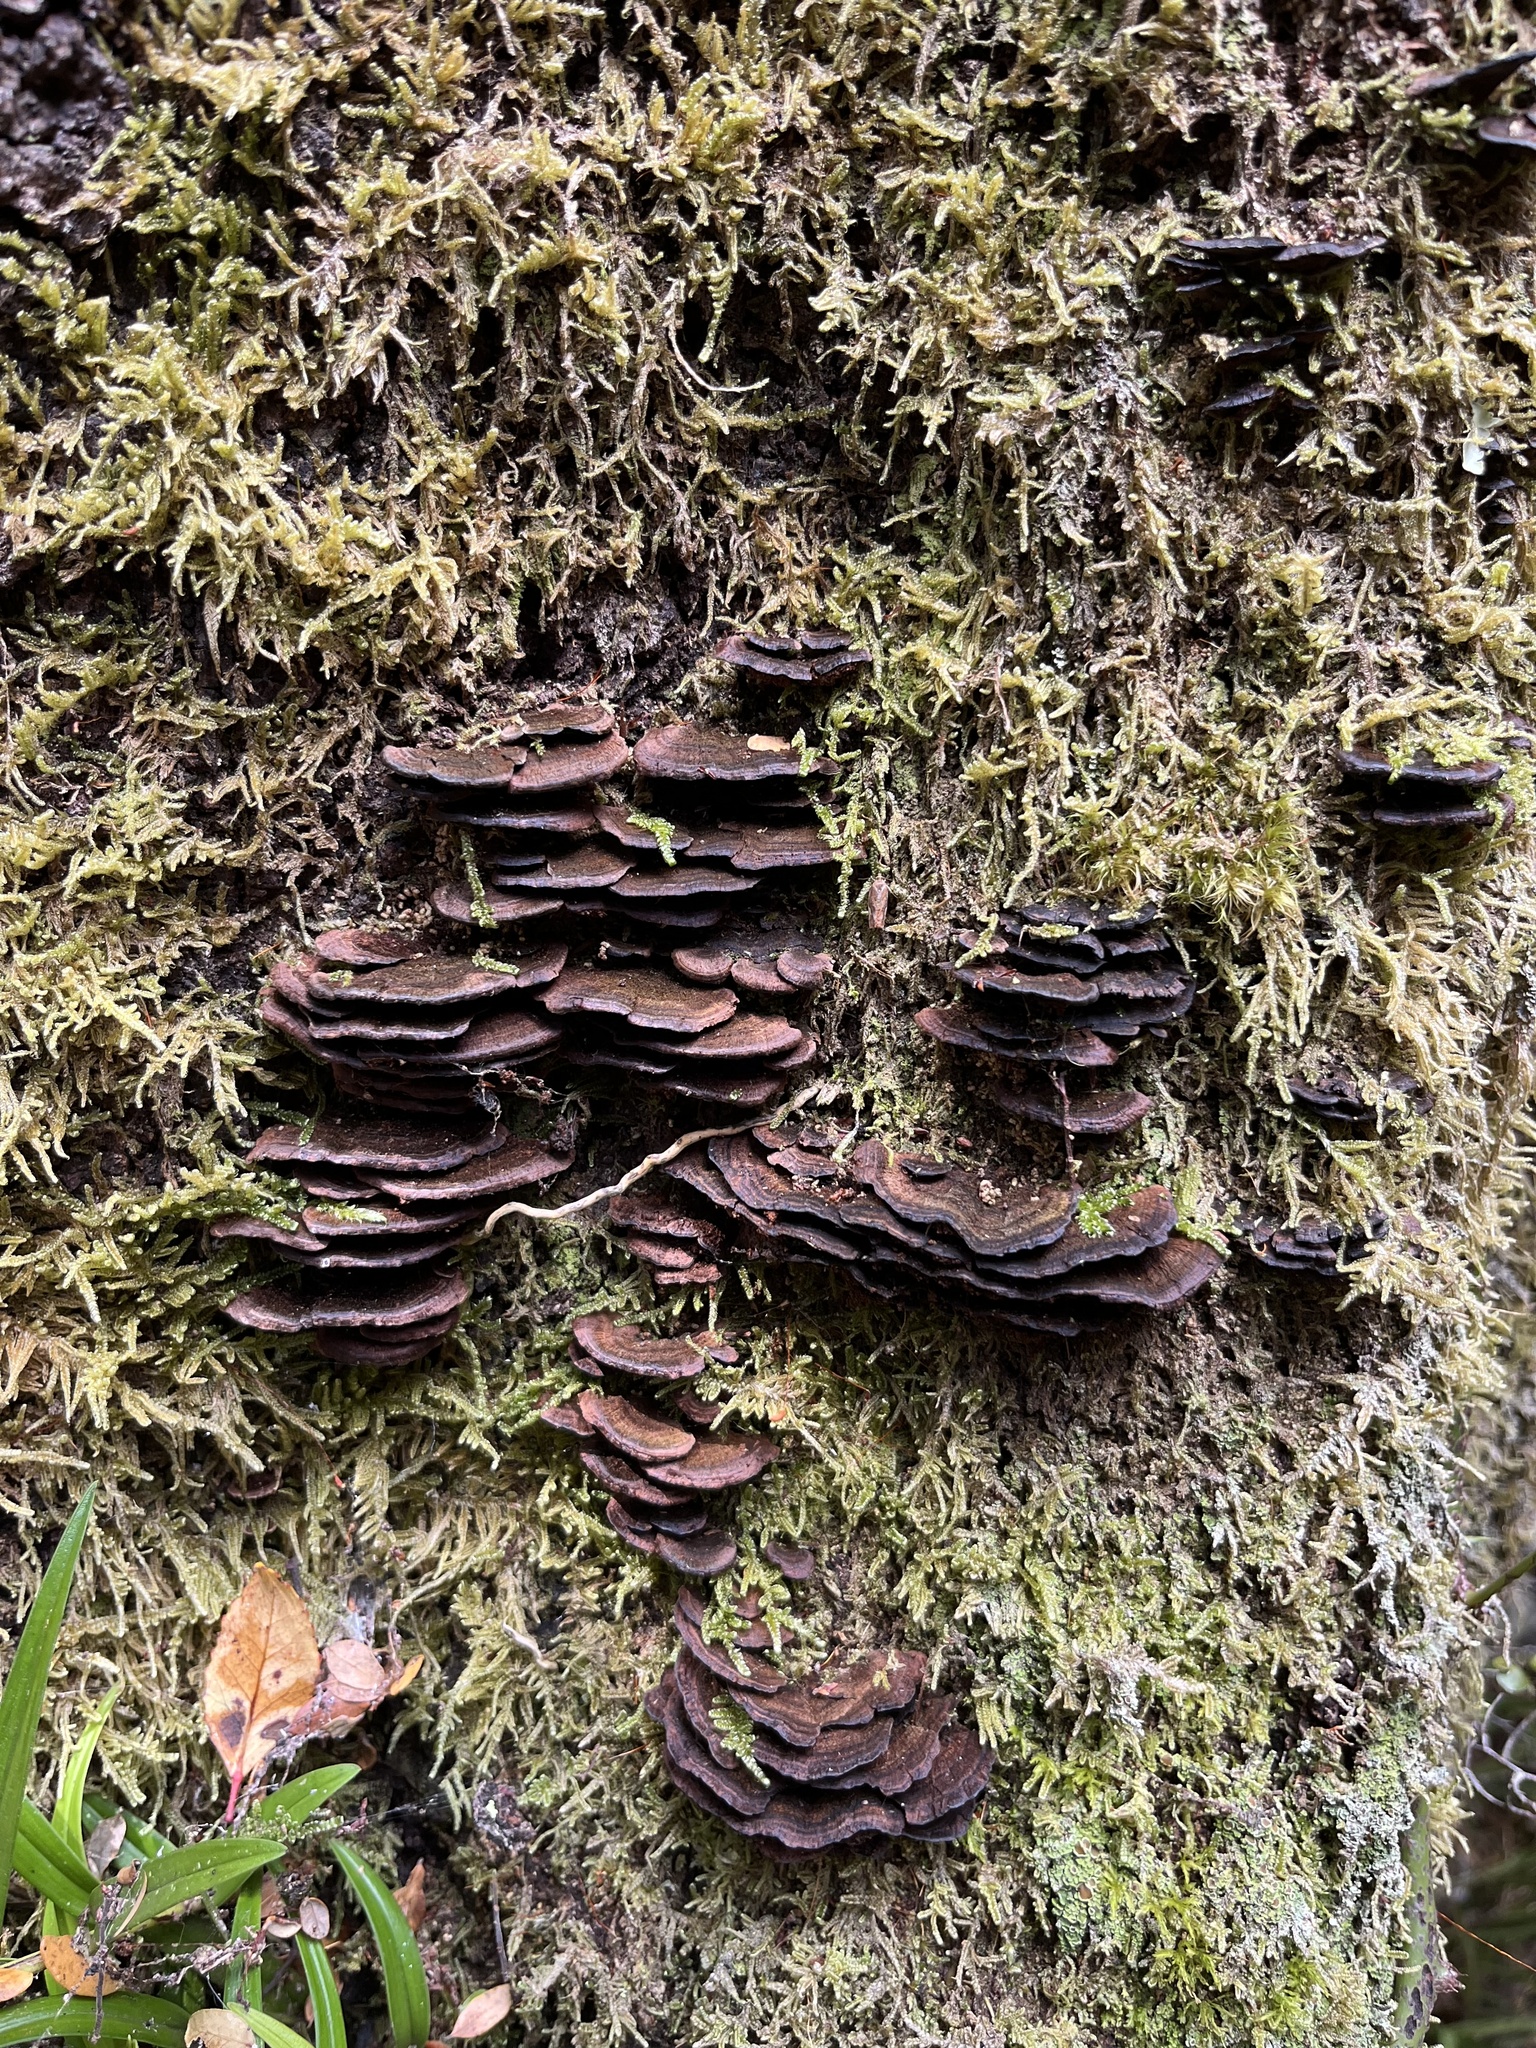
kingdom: Fungi
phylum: Basidiomycota
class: Agaricomycetes
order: Hymenochaetales
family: Hymenochaetaceae
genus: Hymenochaete
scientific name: Hymenochaete microcycla
